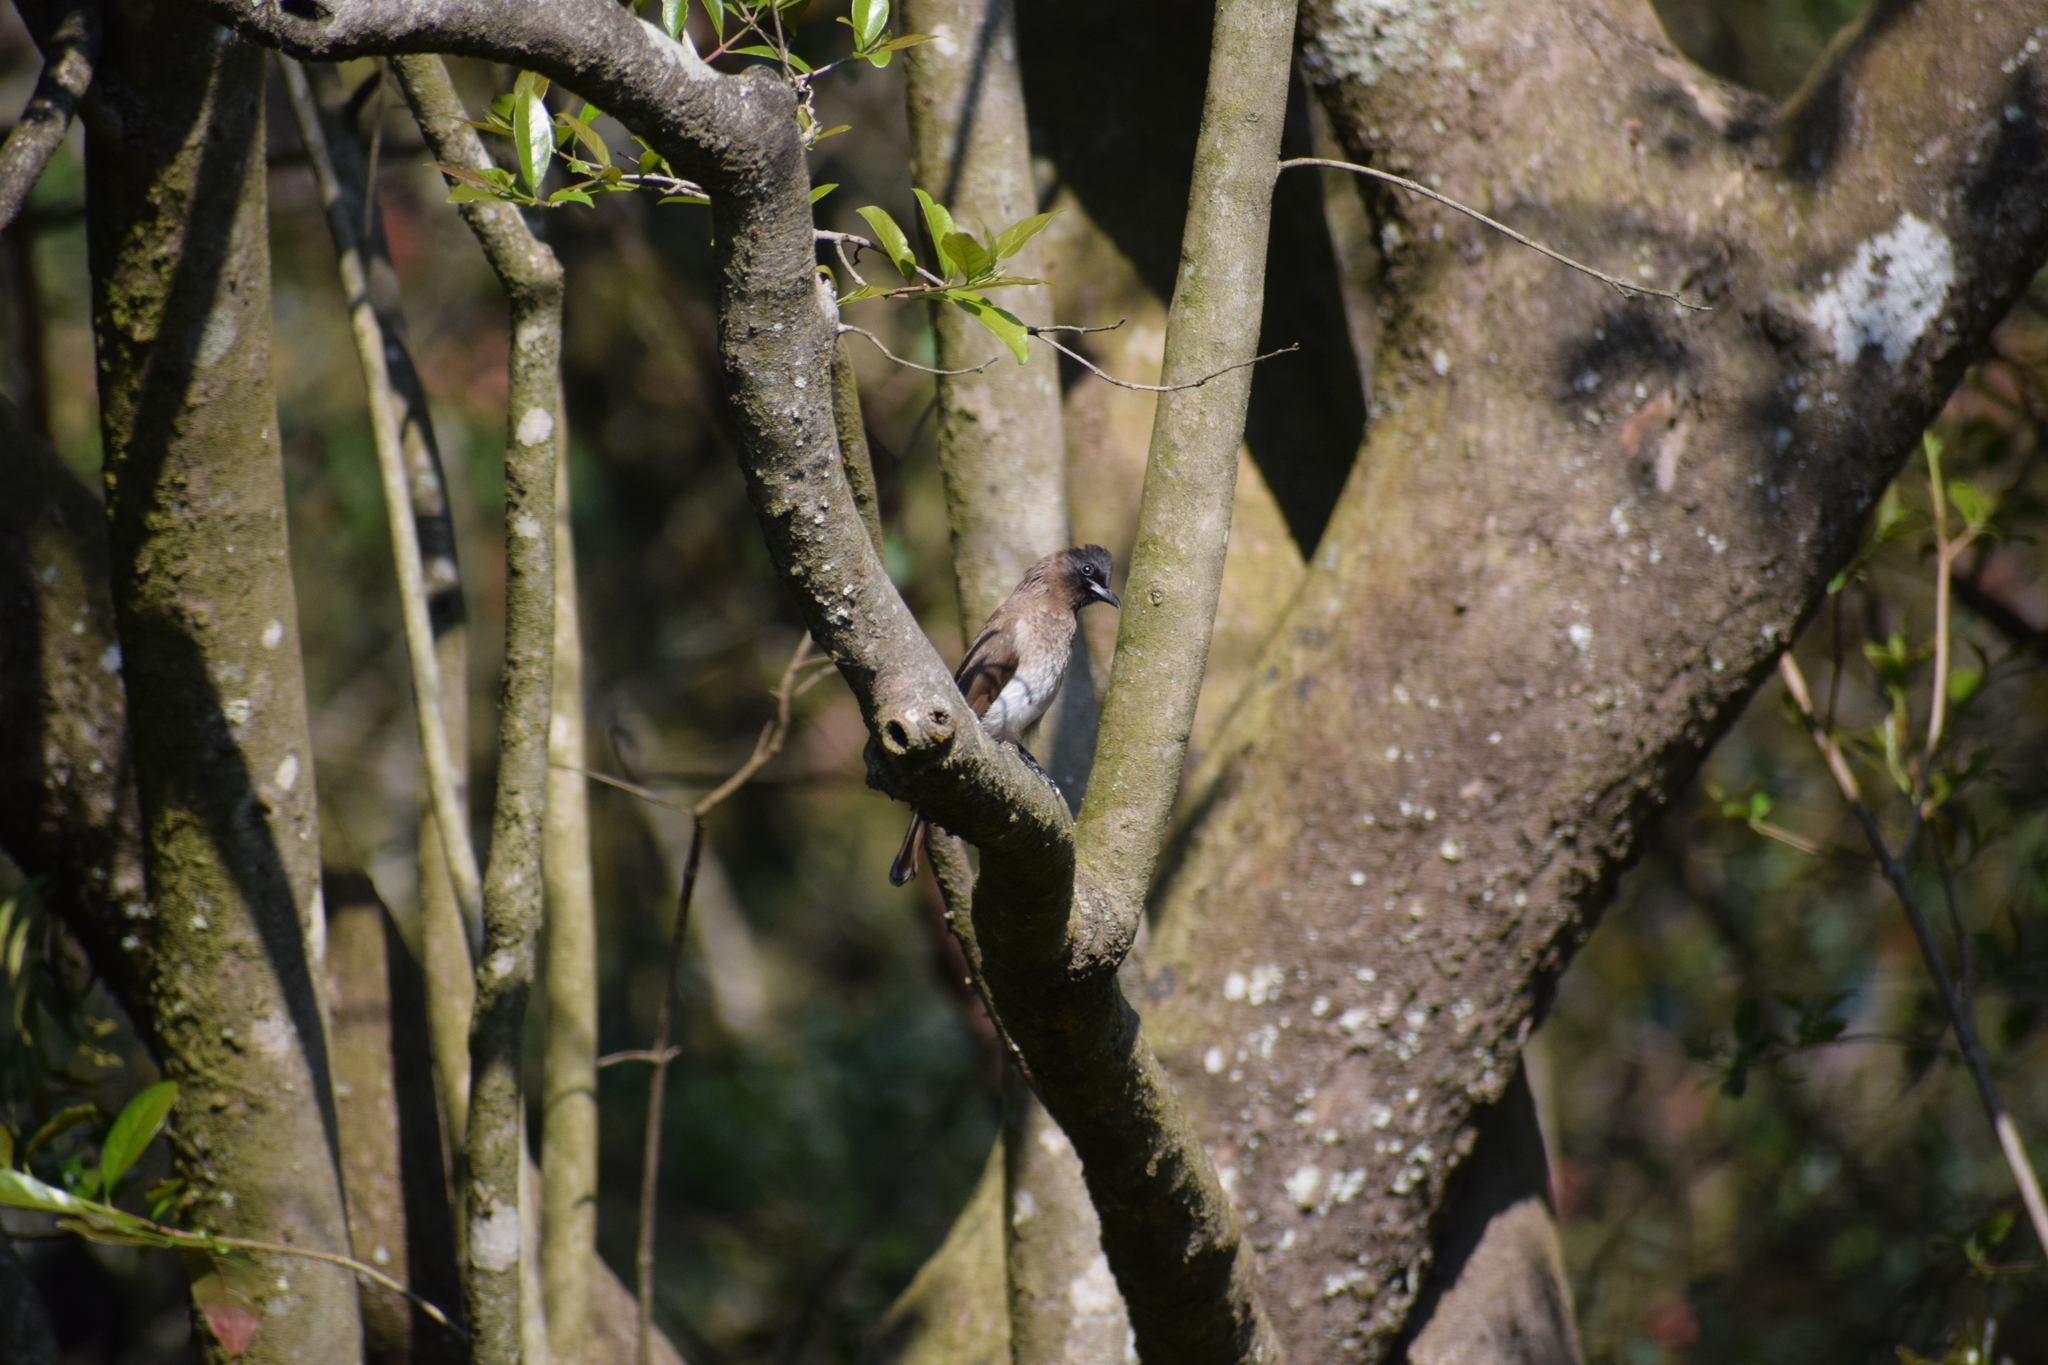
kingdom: Animalia
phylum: Chordata
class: Aves
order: Passeriformes
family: Pycnonotidae
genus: Pycnonotus
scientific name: Pycnonotus barbatus
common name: Common bulbul
